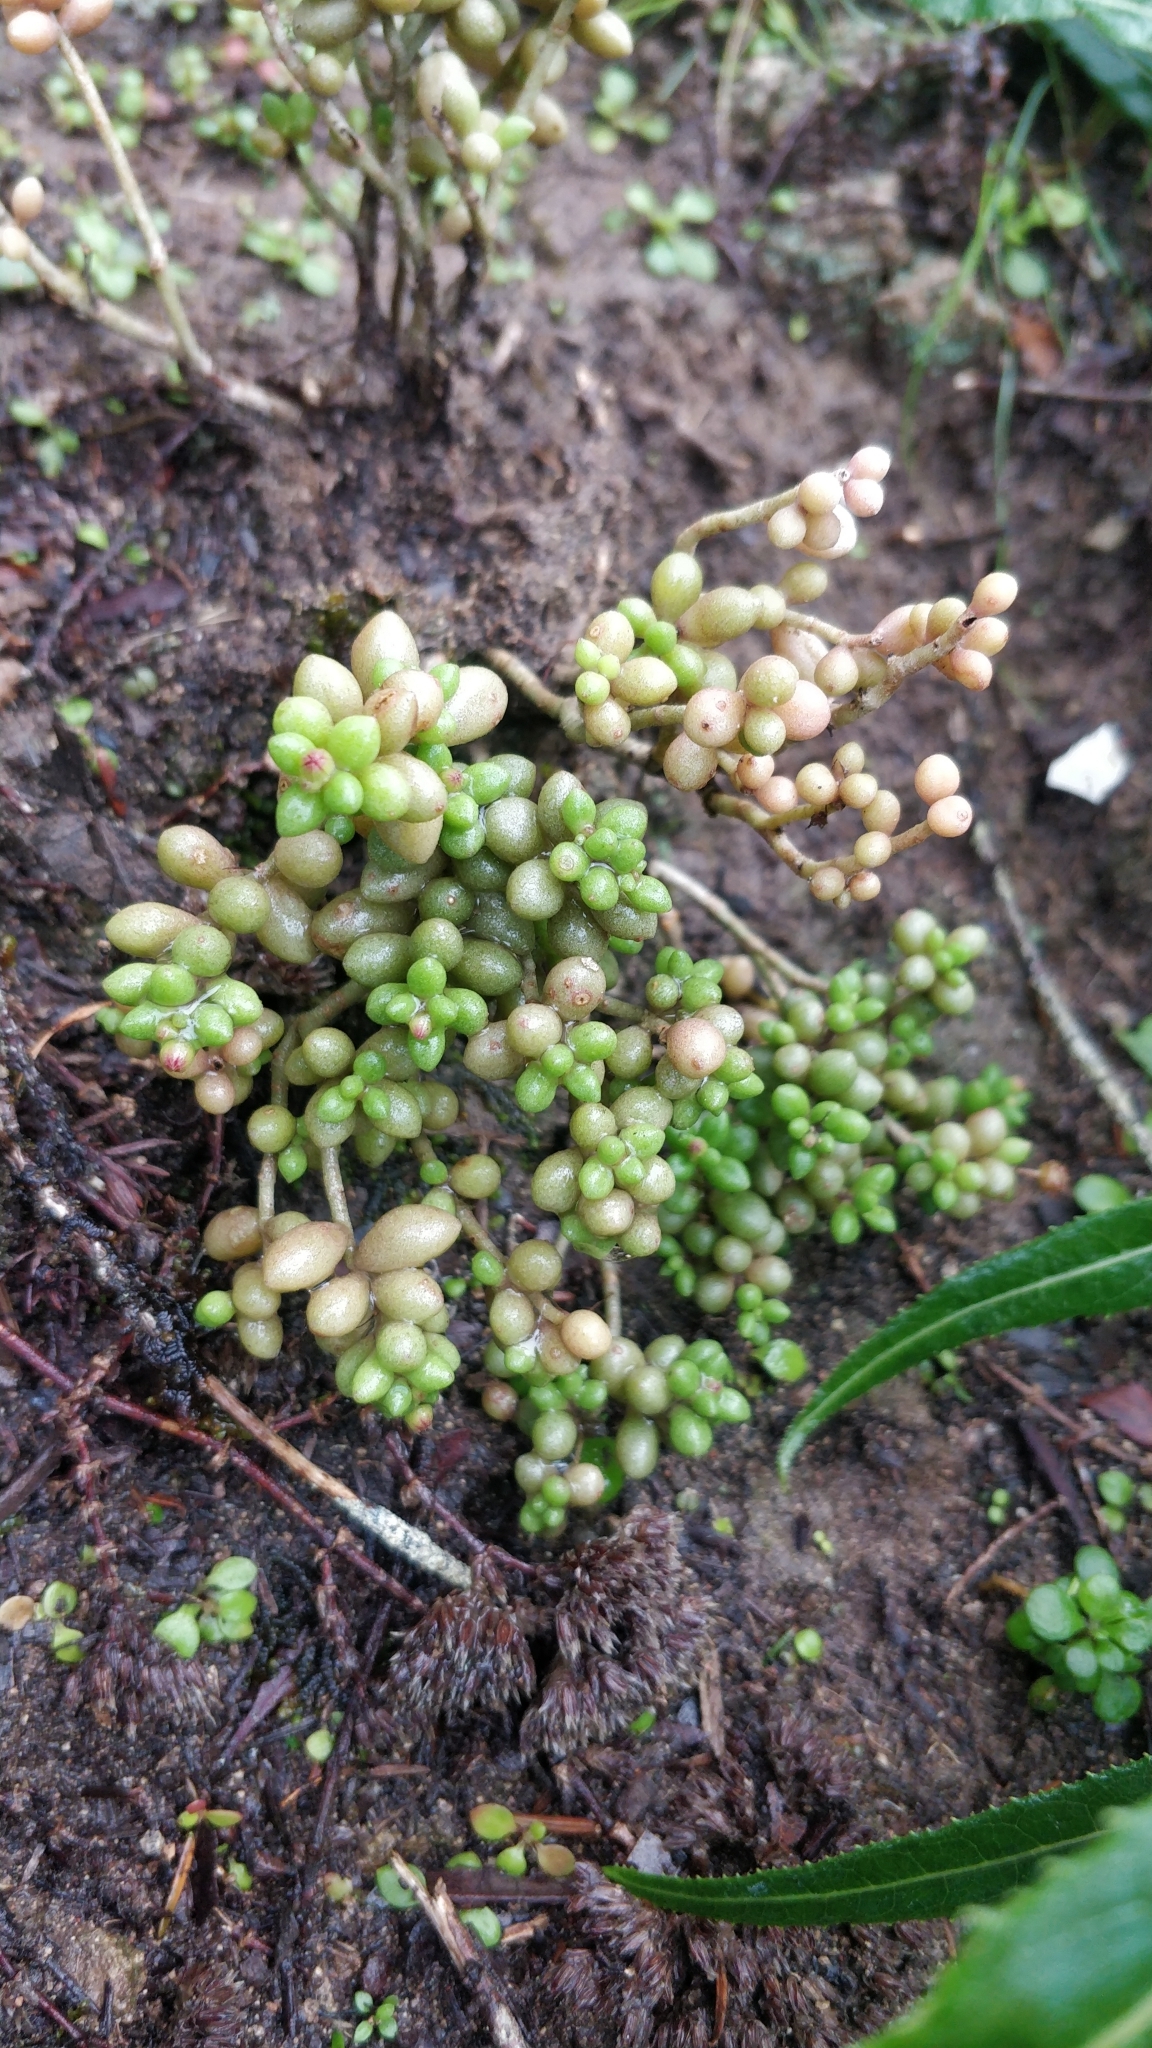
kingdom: Plantae
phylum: Tracheophyta
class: Magnoliopsida
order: Saxifragales
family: Crassulaceae
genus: Monanthes
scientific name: Monanthes laxiflora
